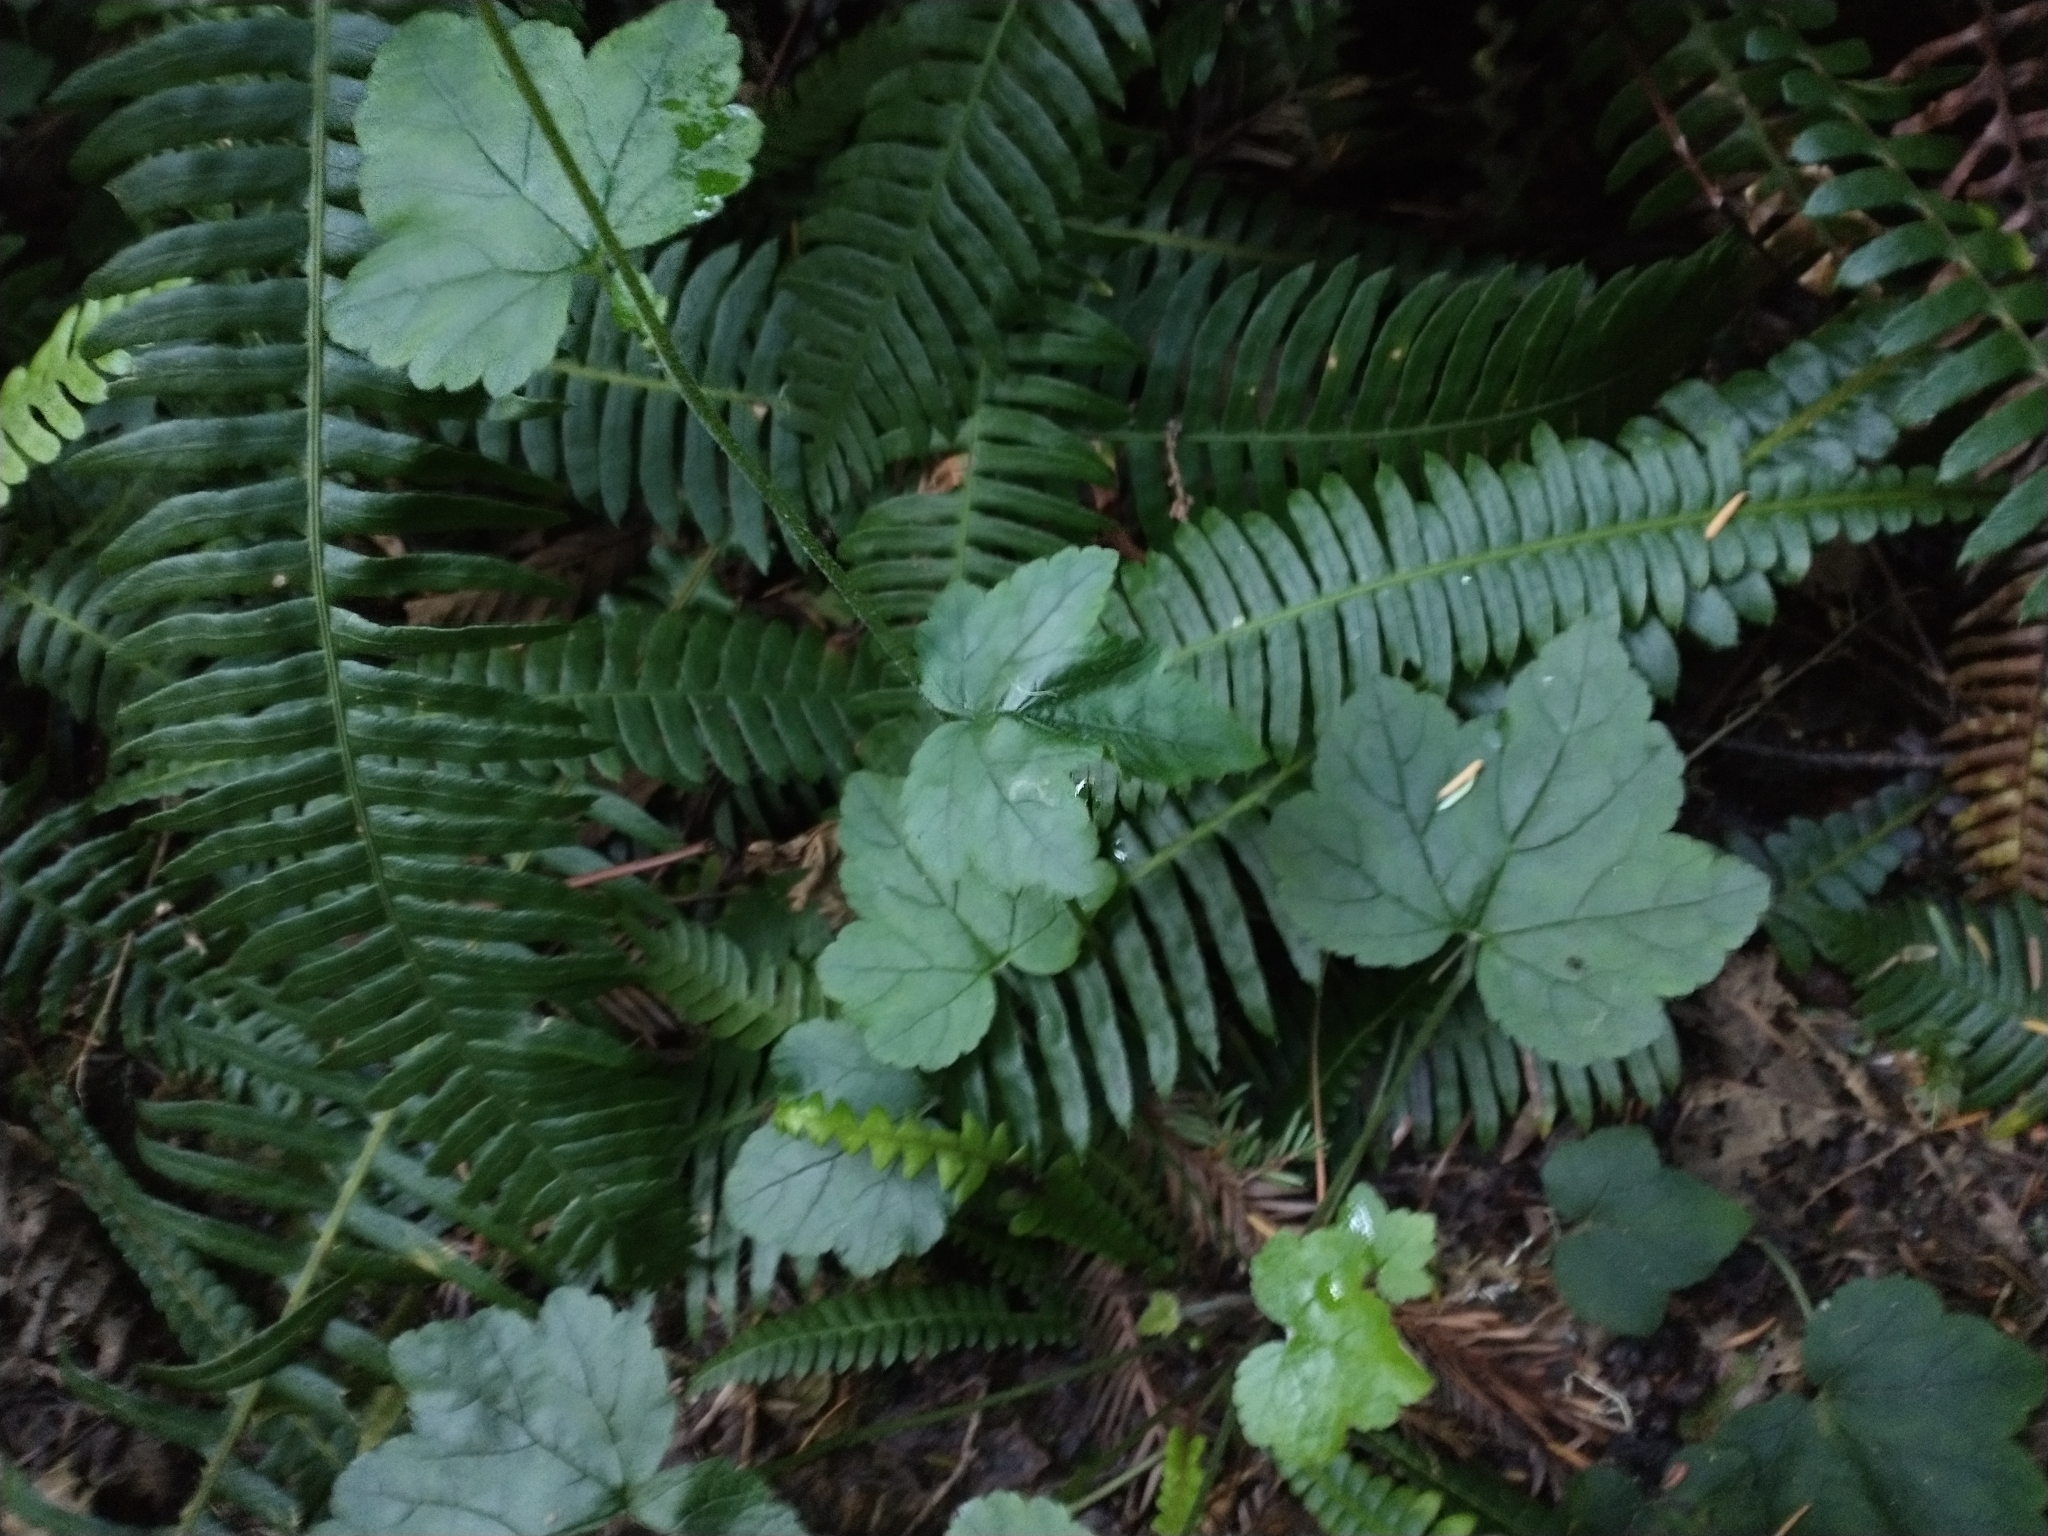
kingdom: Plantae
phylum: Tracheophyta
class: Magnoliopsida
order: Saxifragales
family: Saxifragaceae
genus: Tiarella
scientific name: Tiarella trifoliata
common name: Sugar-scoop
